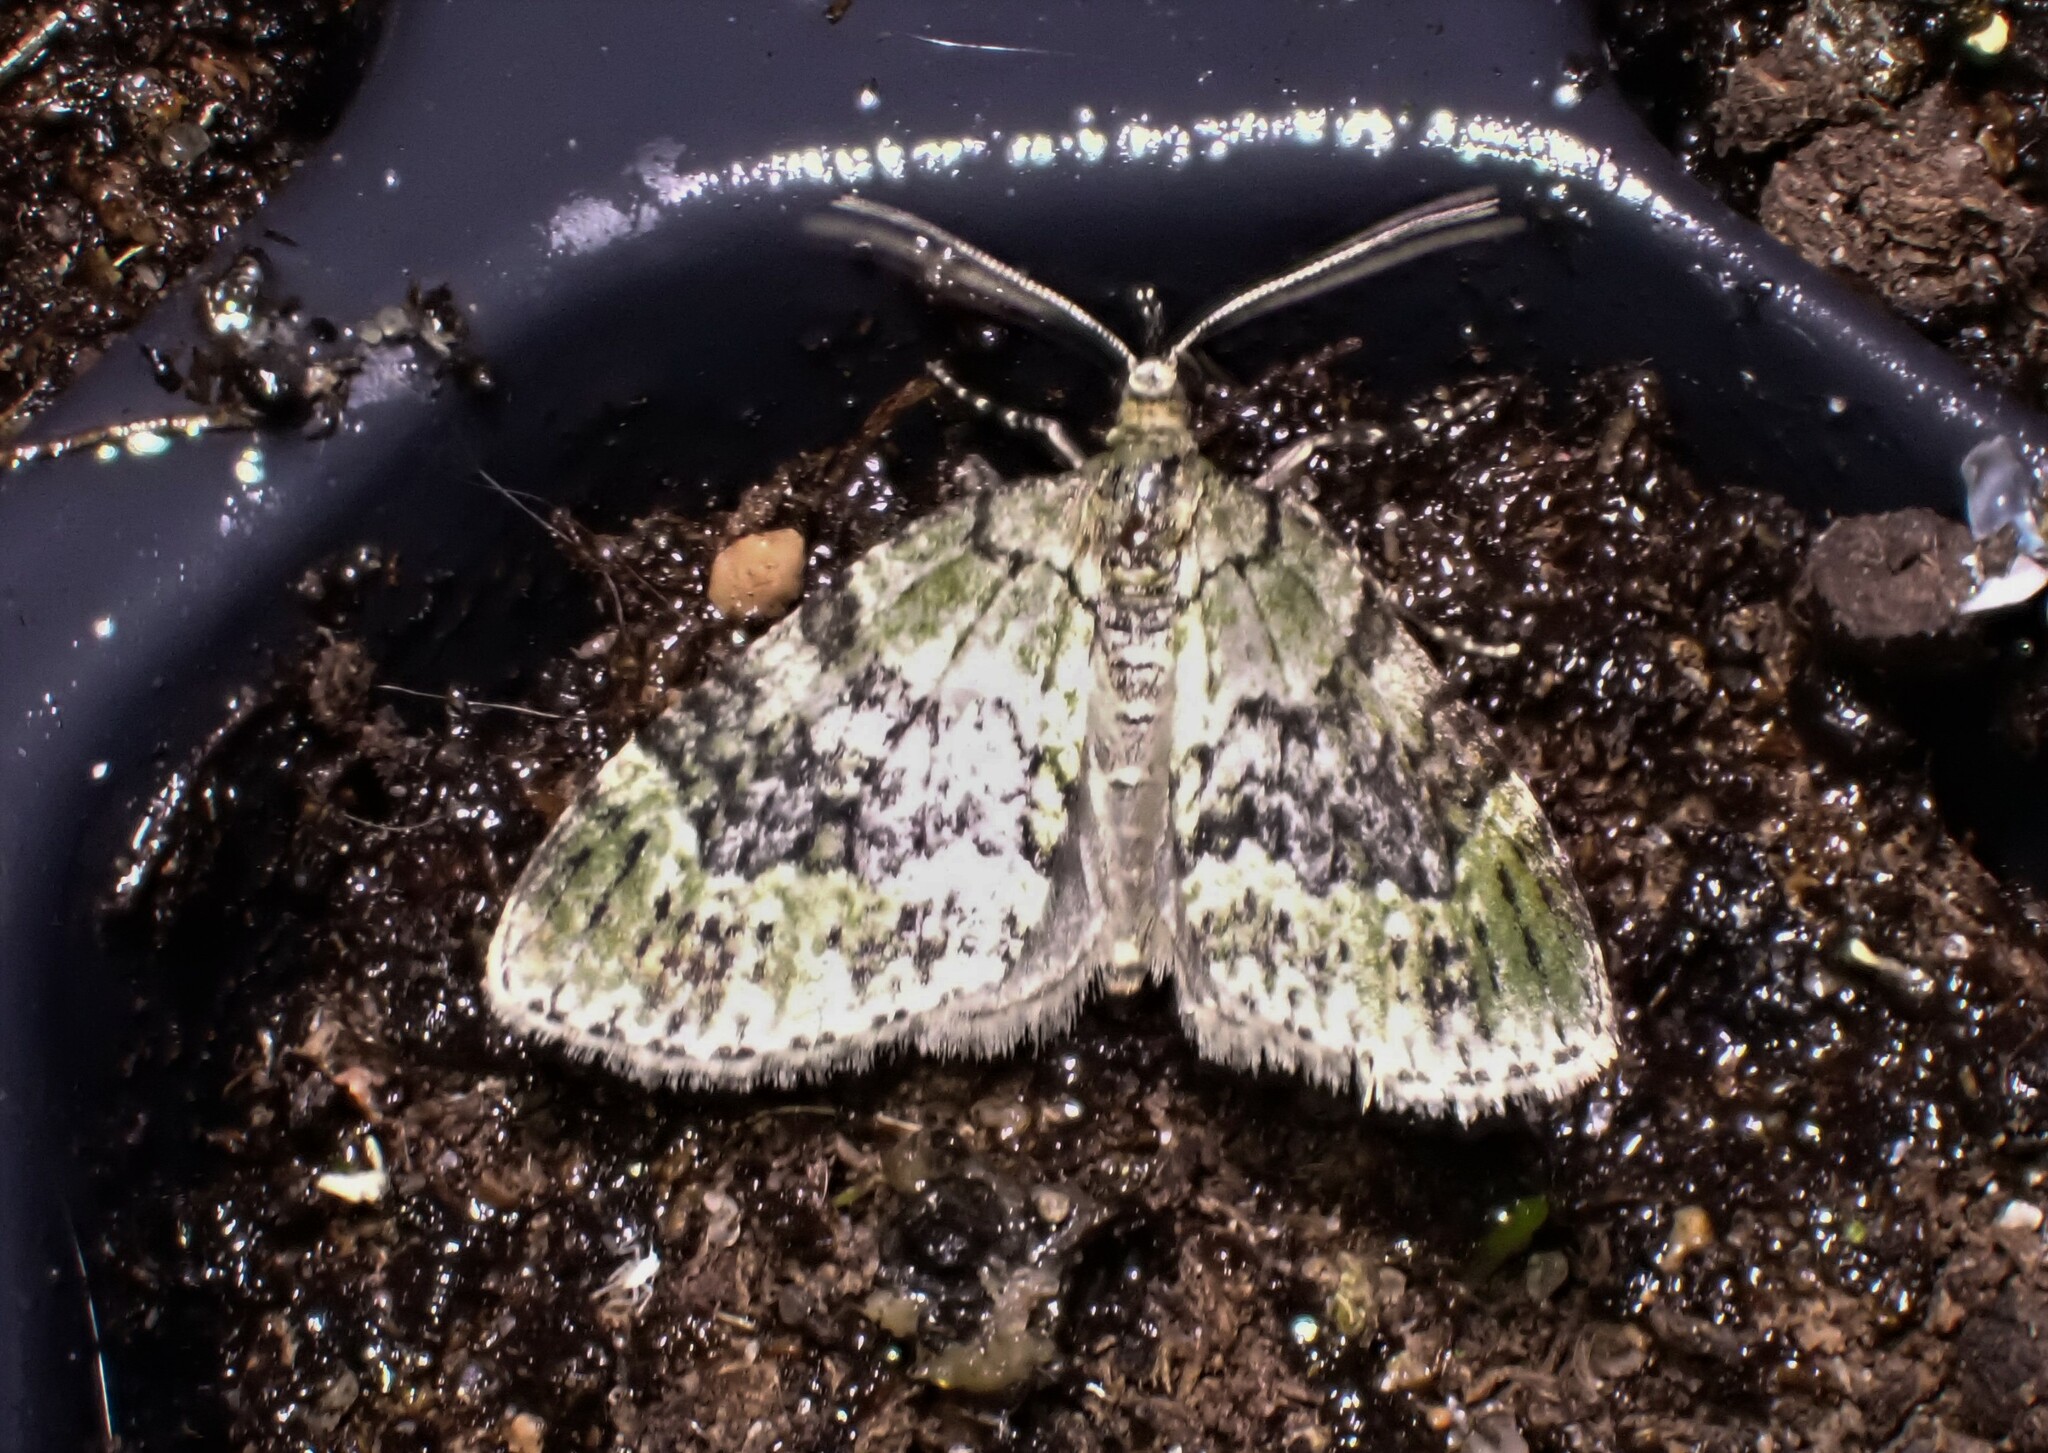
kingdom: Animalia
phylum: Arthropoda
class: Insecta
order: Lepidoptera
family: Geometridae
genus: Acasis
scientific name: Acasis viretata
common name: Yellow-barred brindle
